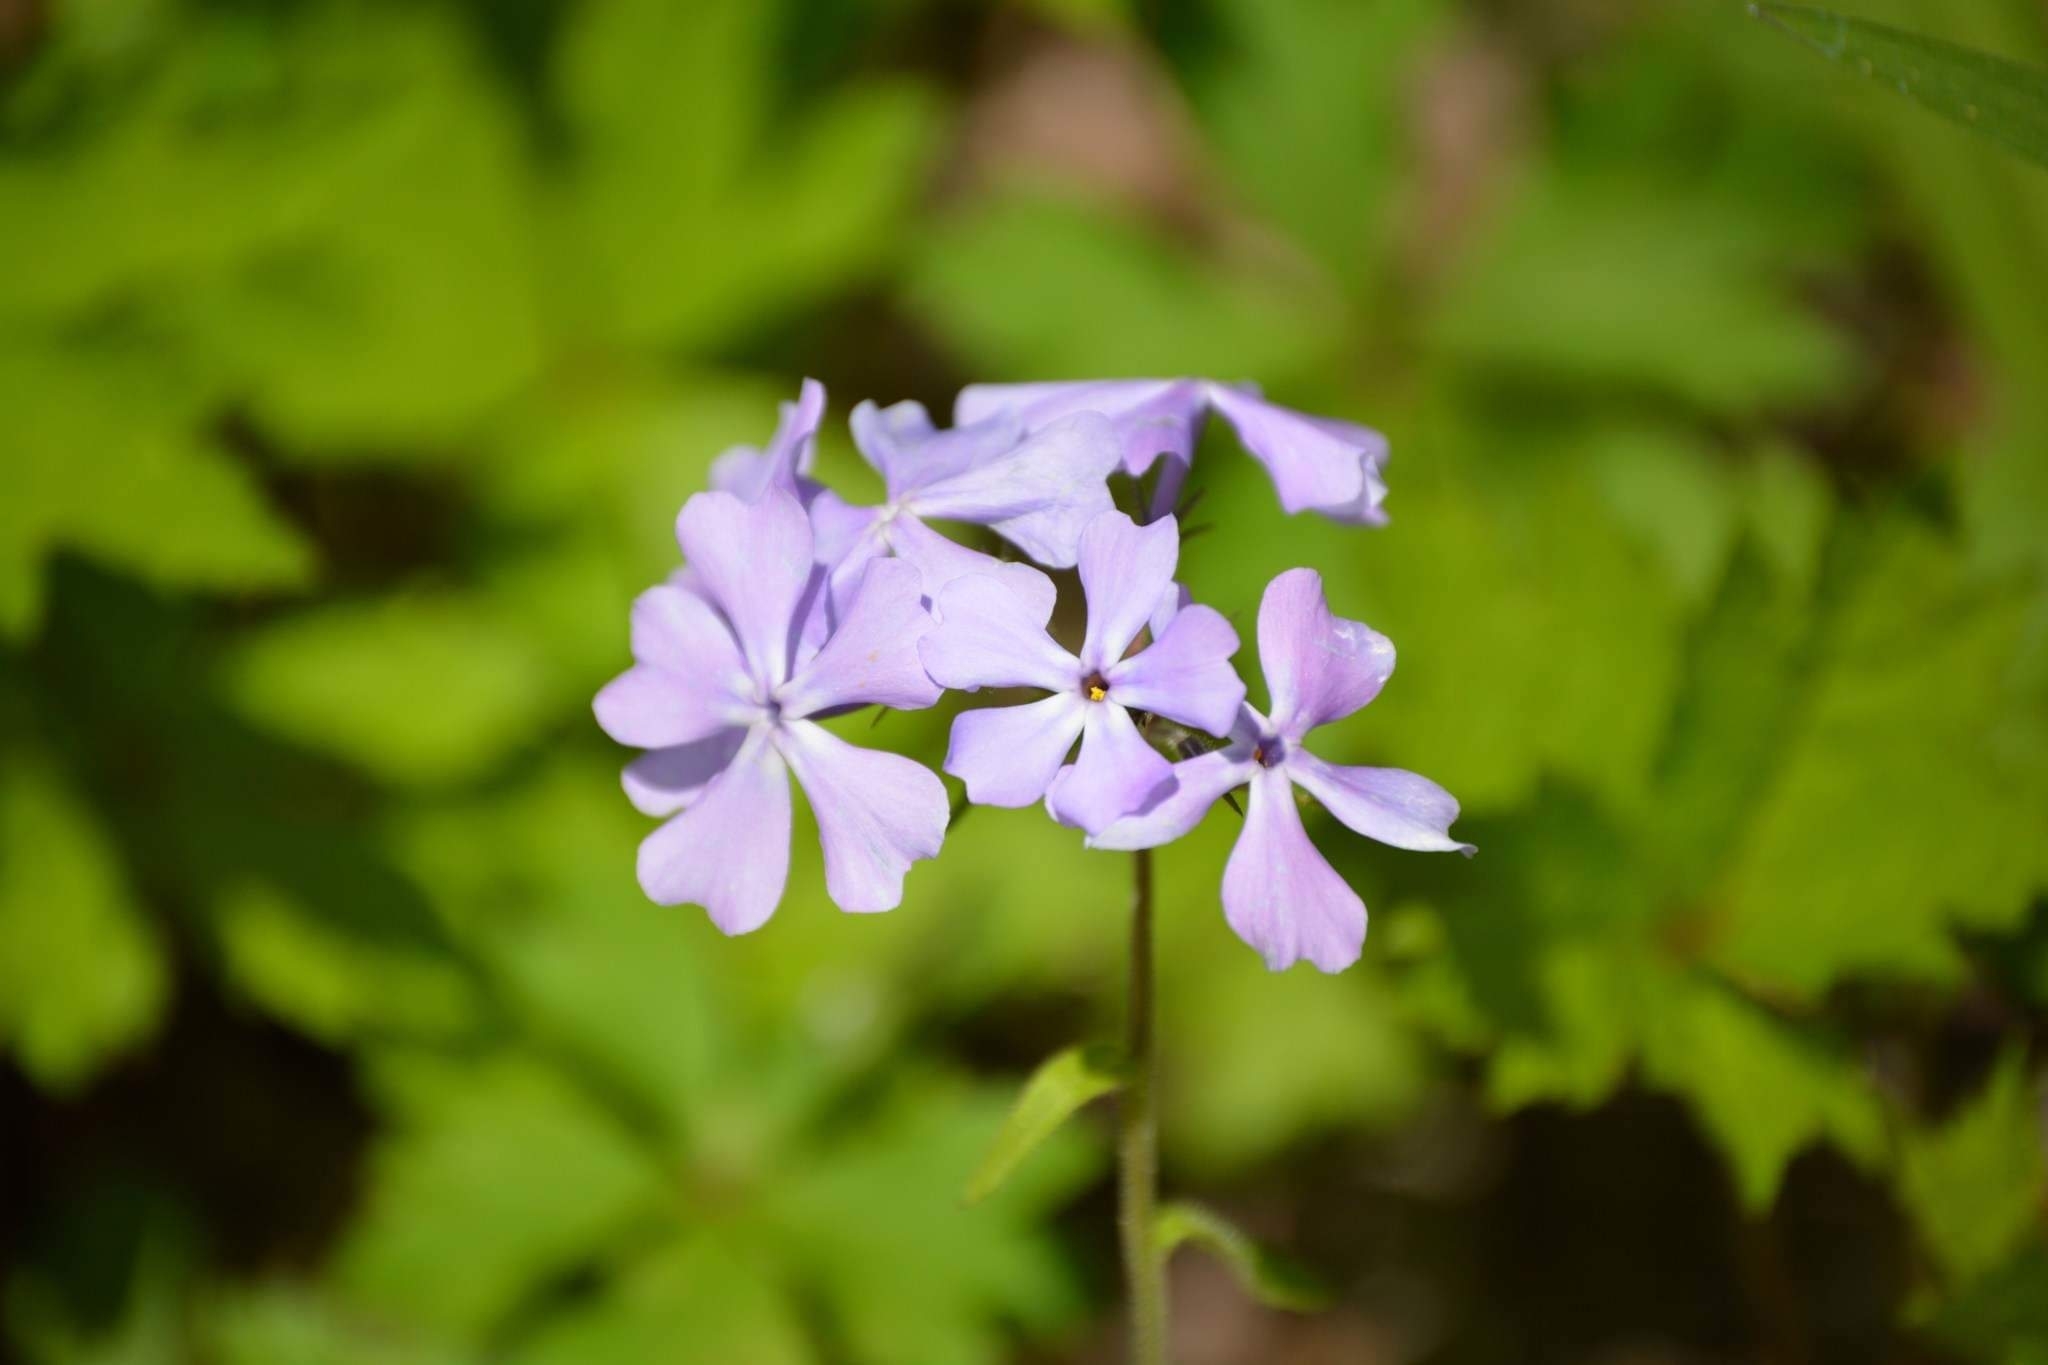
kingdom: Plantae
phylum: Tracheophyta
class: Magnoliopsida
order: Ericales
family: Polemoniaceae
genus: Phlox
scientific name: Phlox divaricata
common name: Blue phlox
